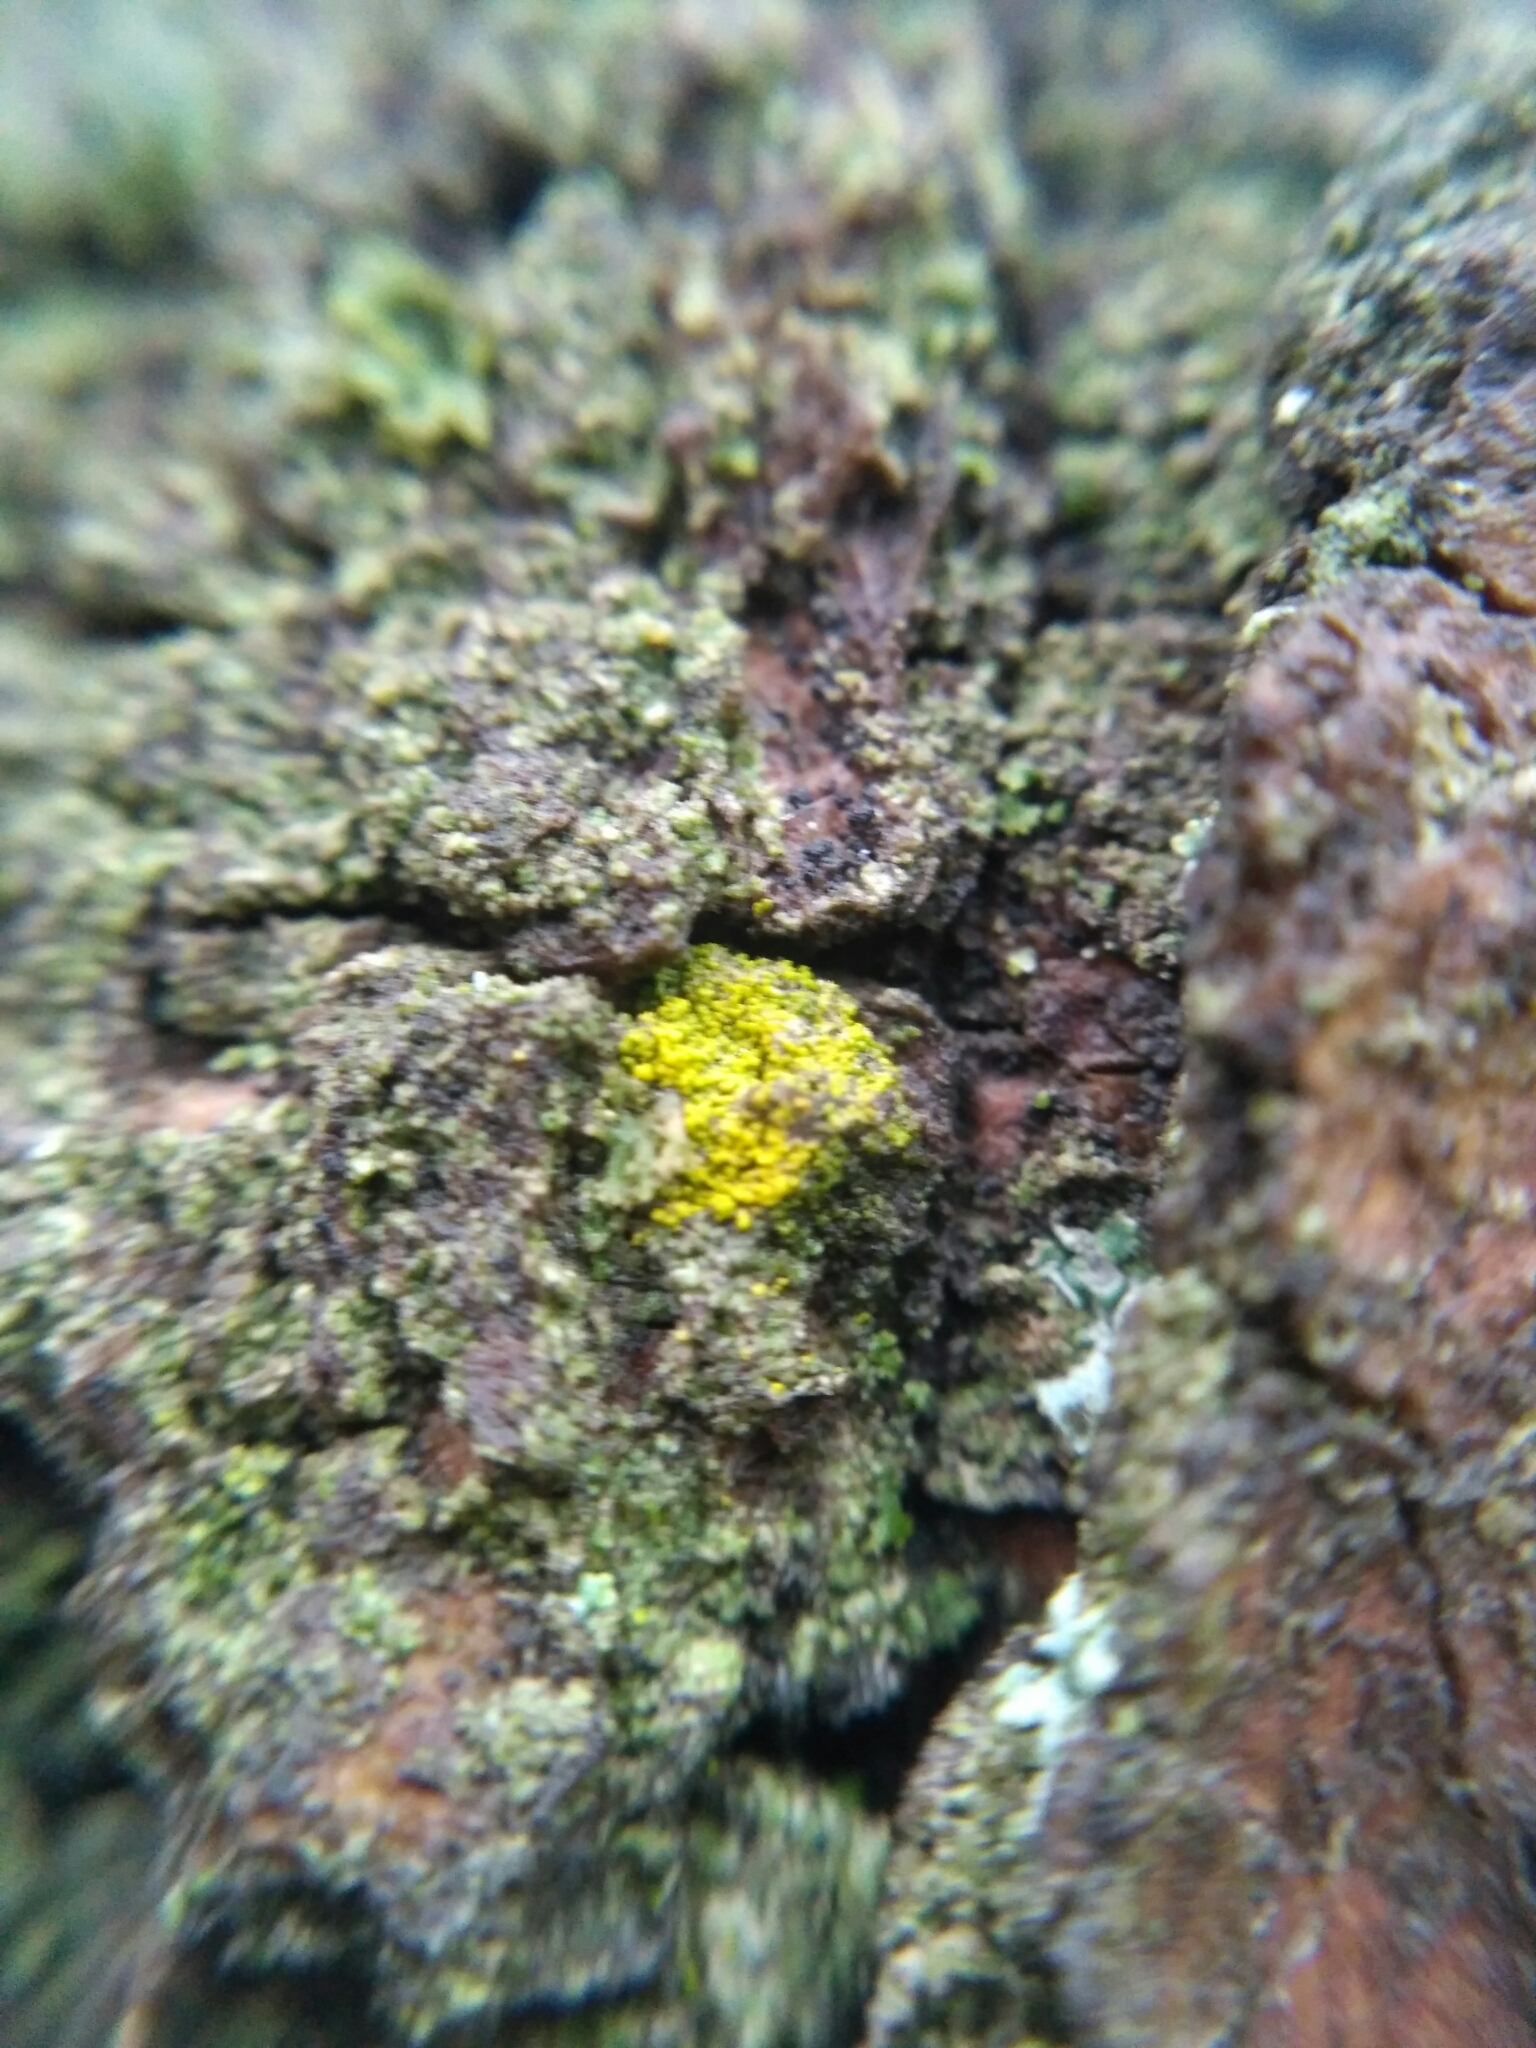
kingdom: Fungi
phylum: Ascomycota
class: Candelariomycetes
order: Candelariales
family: Candelariaceae
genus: Candelariella
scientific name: Candelariella xanthostigma
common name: Granular goldspeck lichen
